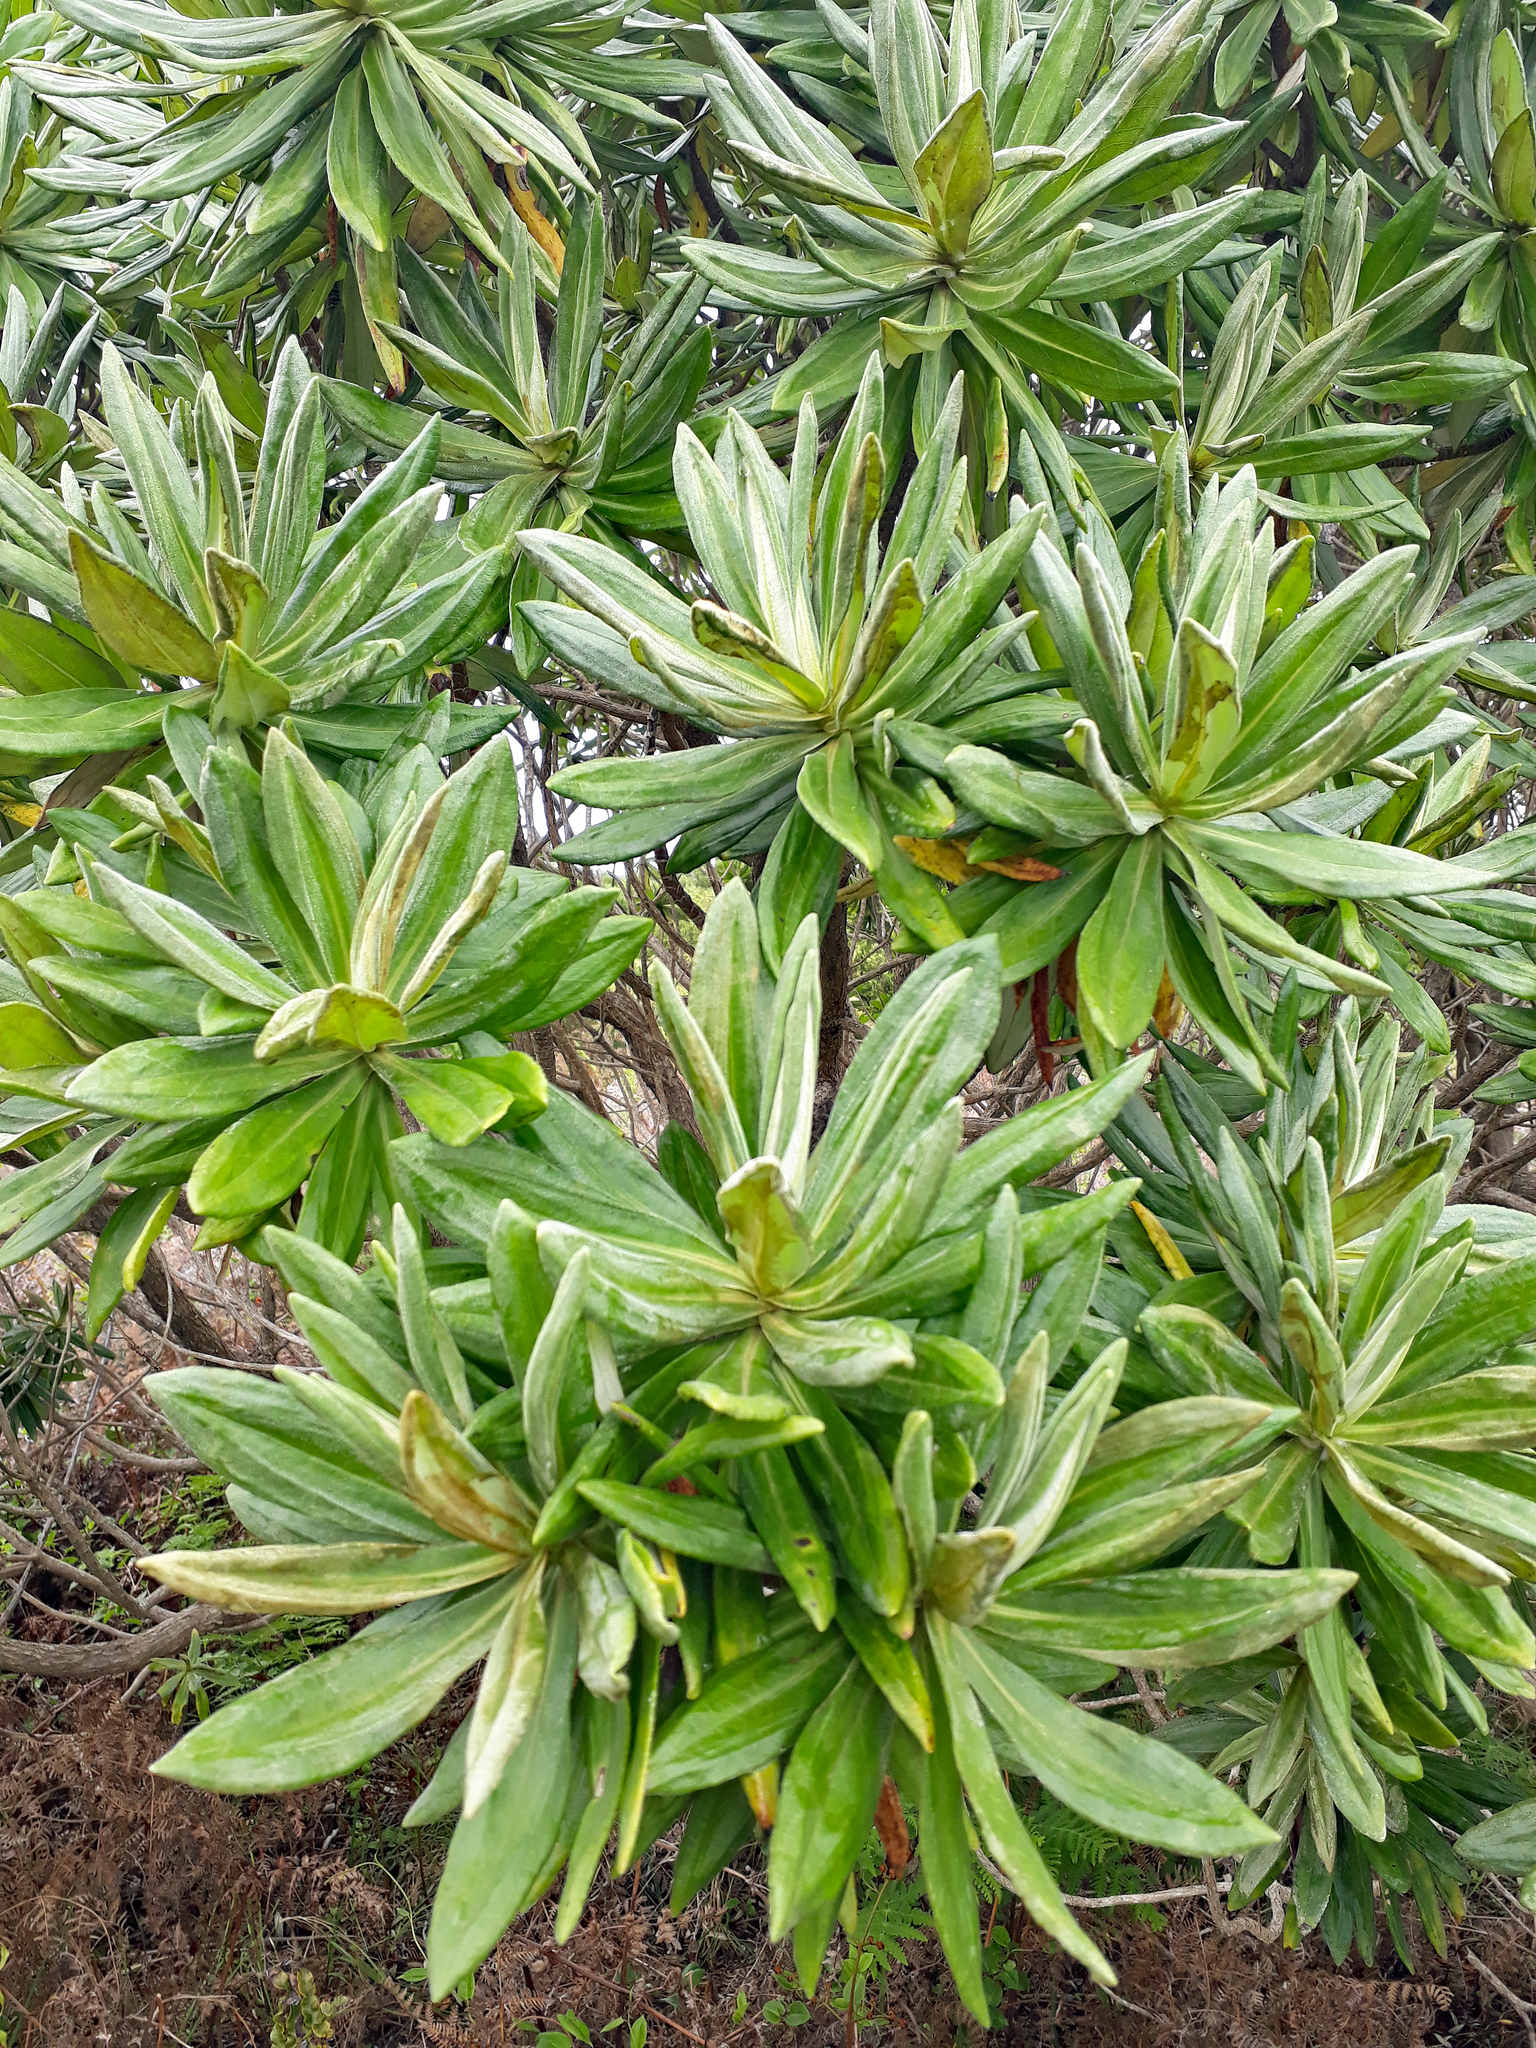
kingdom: Plantae
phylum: Tracheophyta
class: Magnoliopsida
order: Asterales
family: Asteraceae
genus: Brachyglottis
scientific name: Brachyglottis huntii
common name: Chatham island christmas tree
